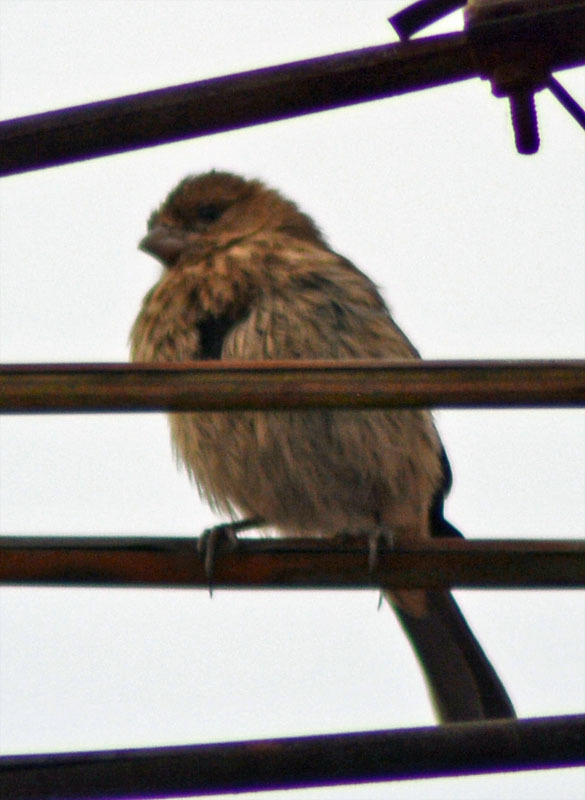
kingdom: Animalia
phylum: Chordata
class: Aves
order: Passeriformes
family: Fringillidae
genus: Haemorhous
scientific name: Haemorhous mexicanus
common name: House finch
